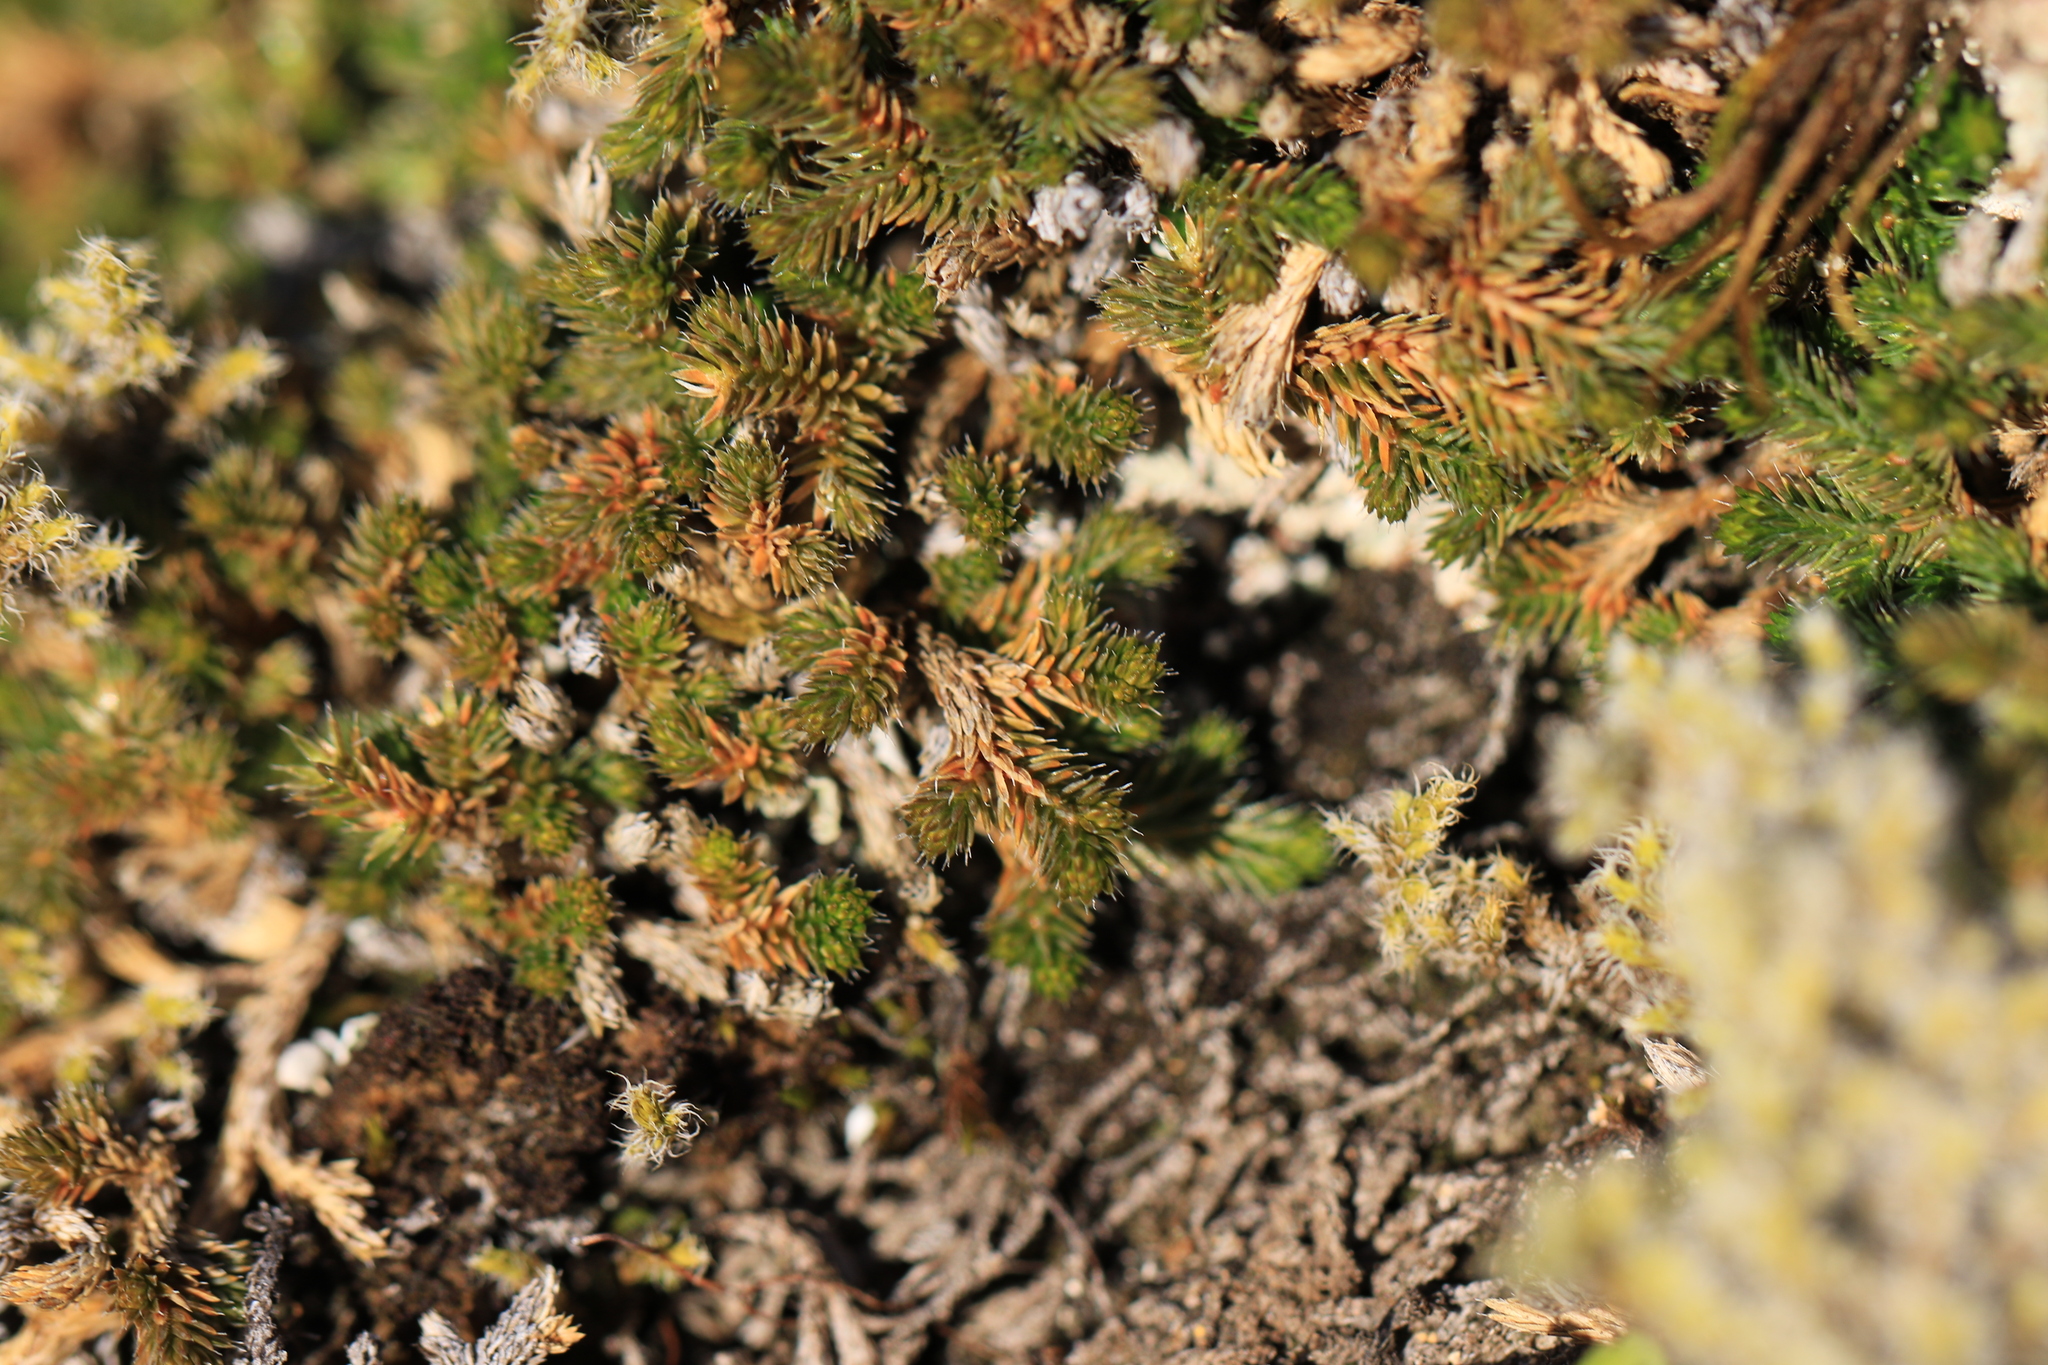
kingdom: Plantae
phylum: Tracheophyta
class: Lycopodiopsida
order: Selaginellales
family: Selaginellaceae
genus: Selaginella
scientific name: Selaginella wallacei
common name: Wallace's selaginella
